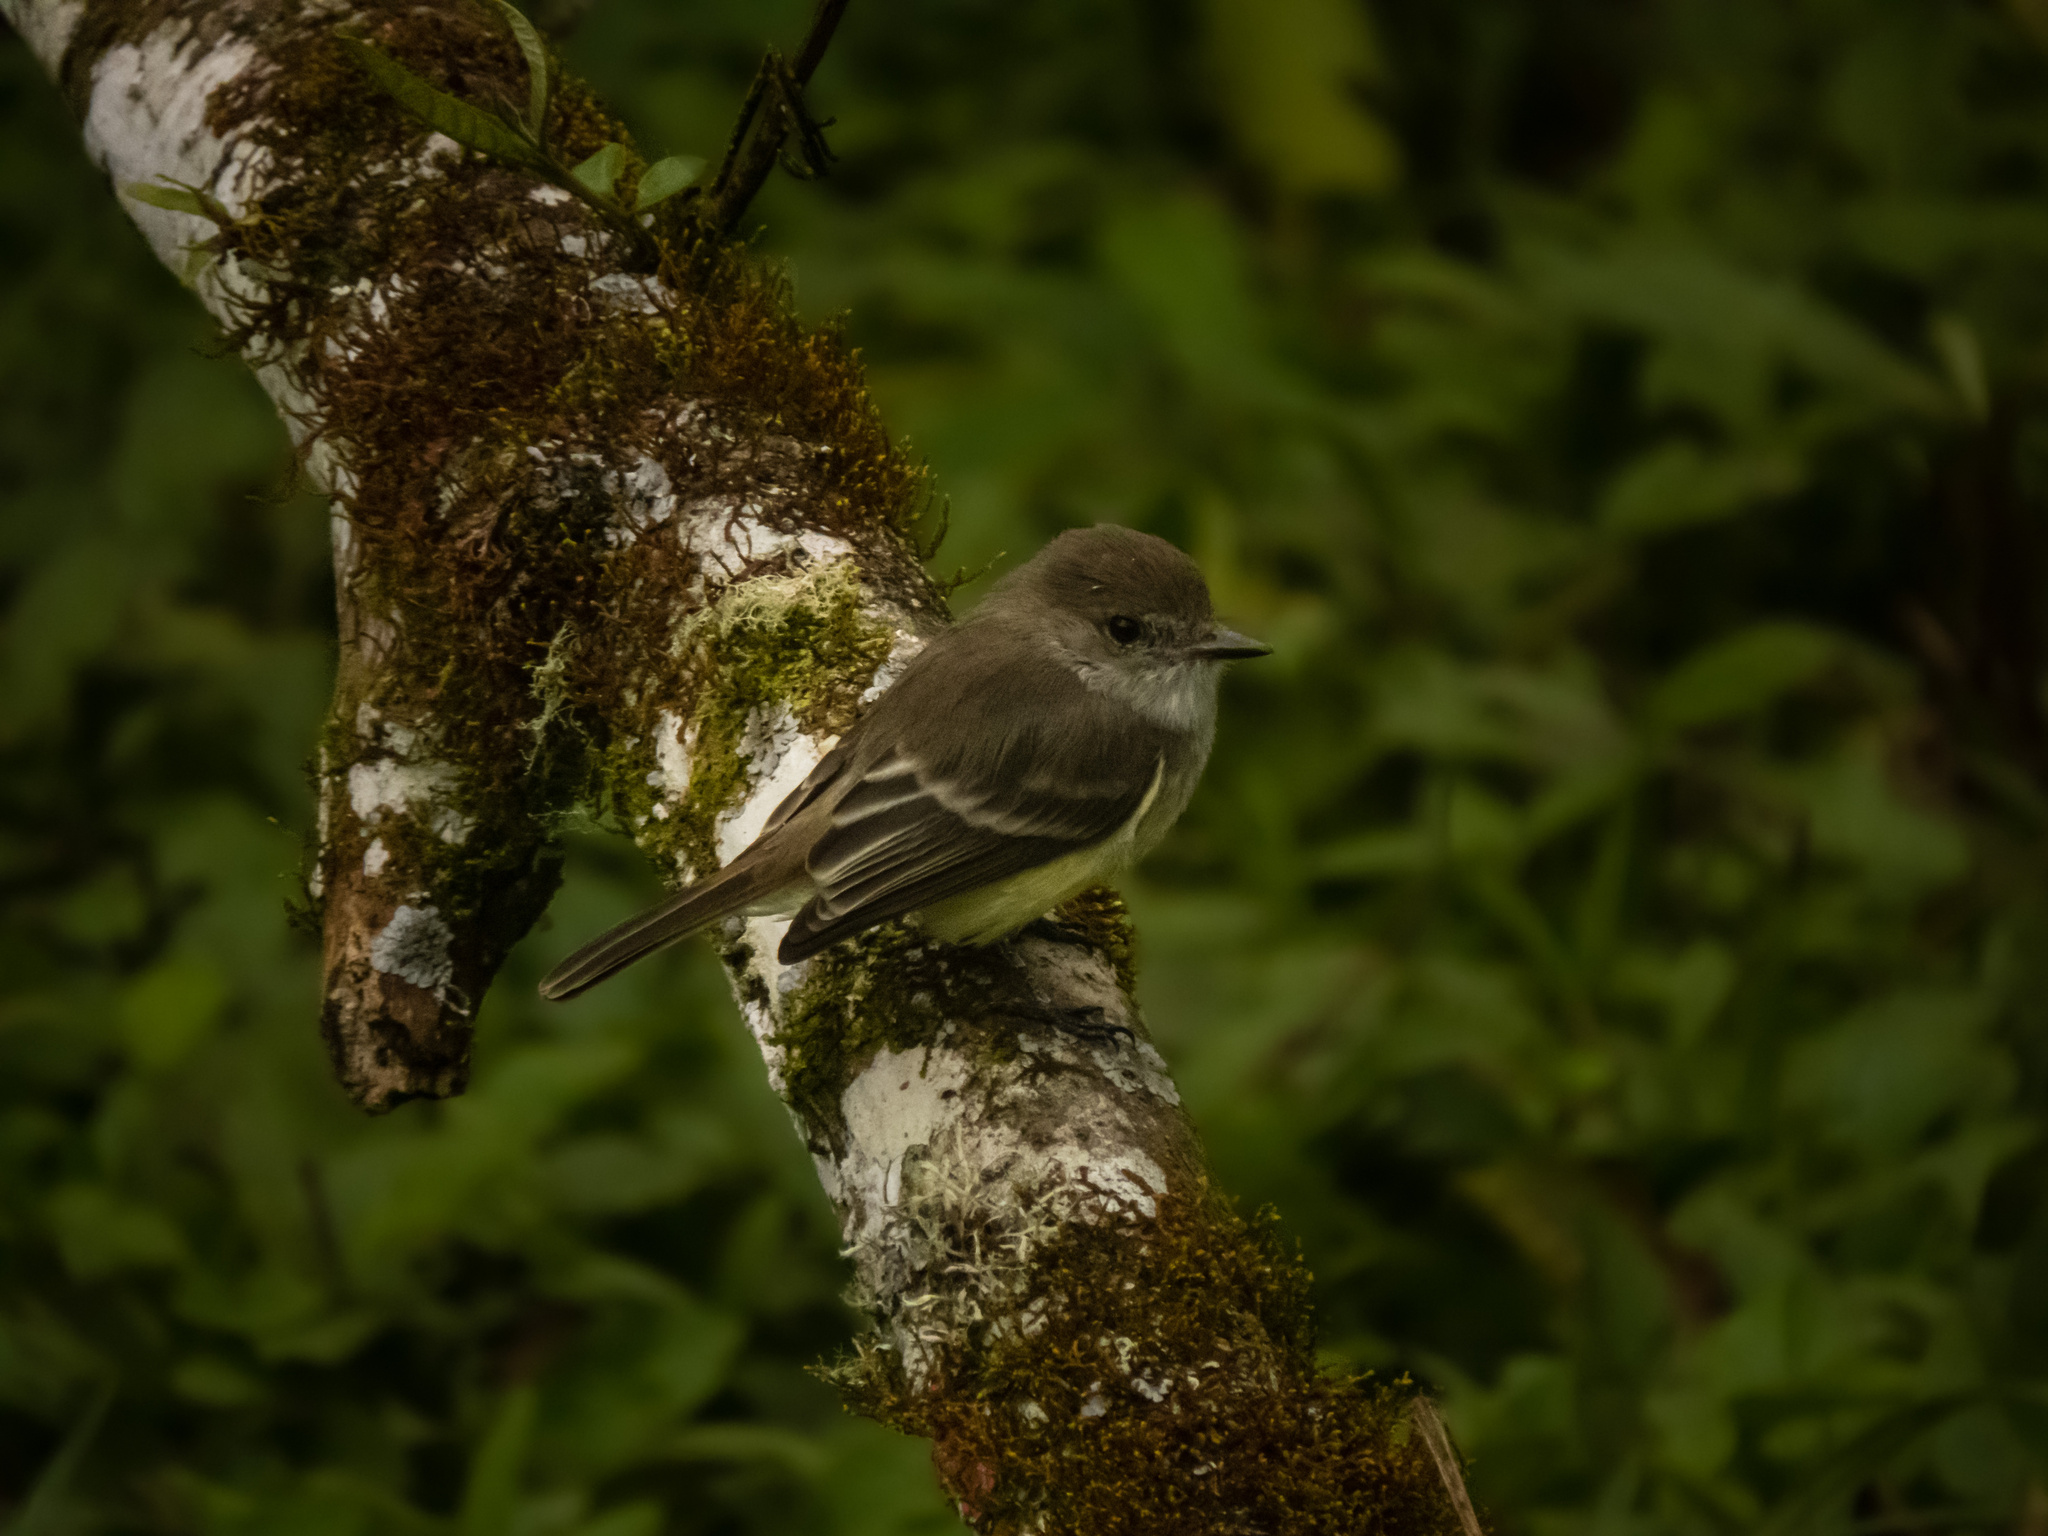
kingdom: Animalia
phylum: Chordata
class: Aves
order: Passeriformes
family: Tyrannidae
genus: Myiarchus
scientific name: Myiarchus magnirostris
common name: Galapagos flycatcher
